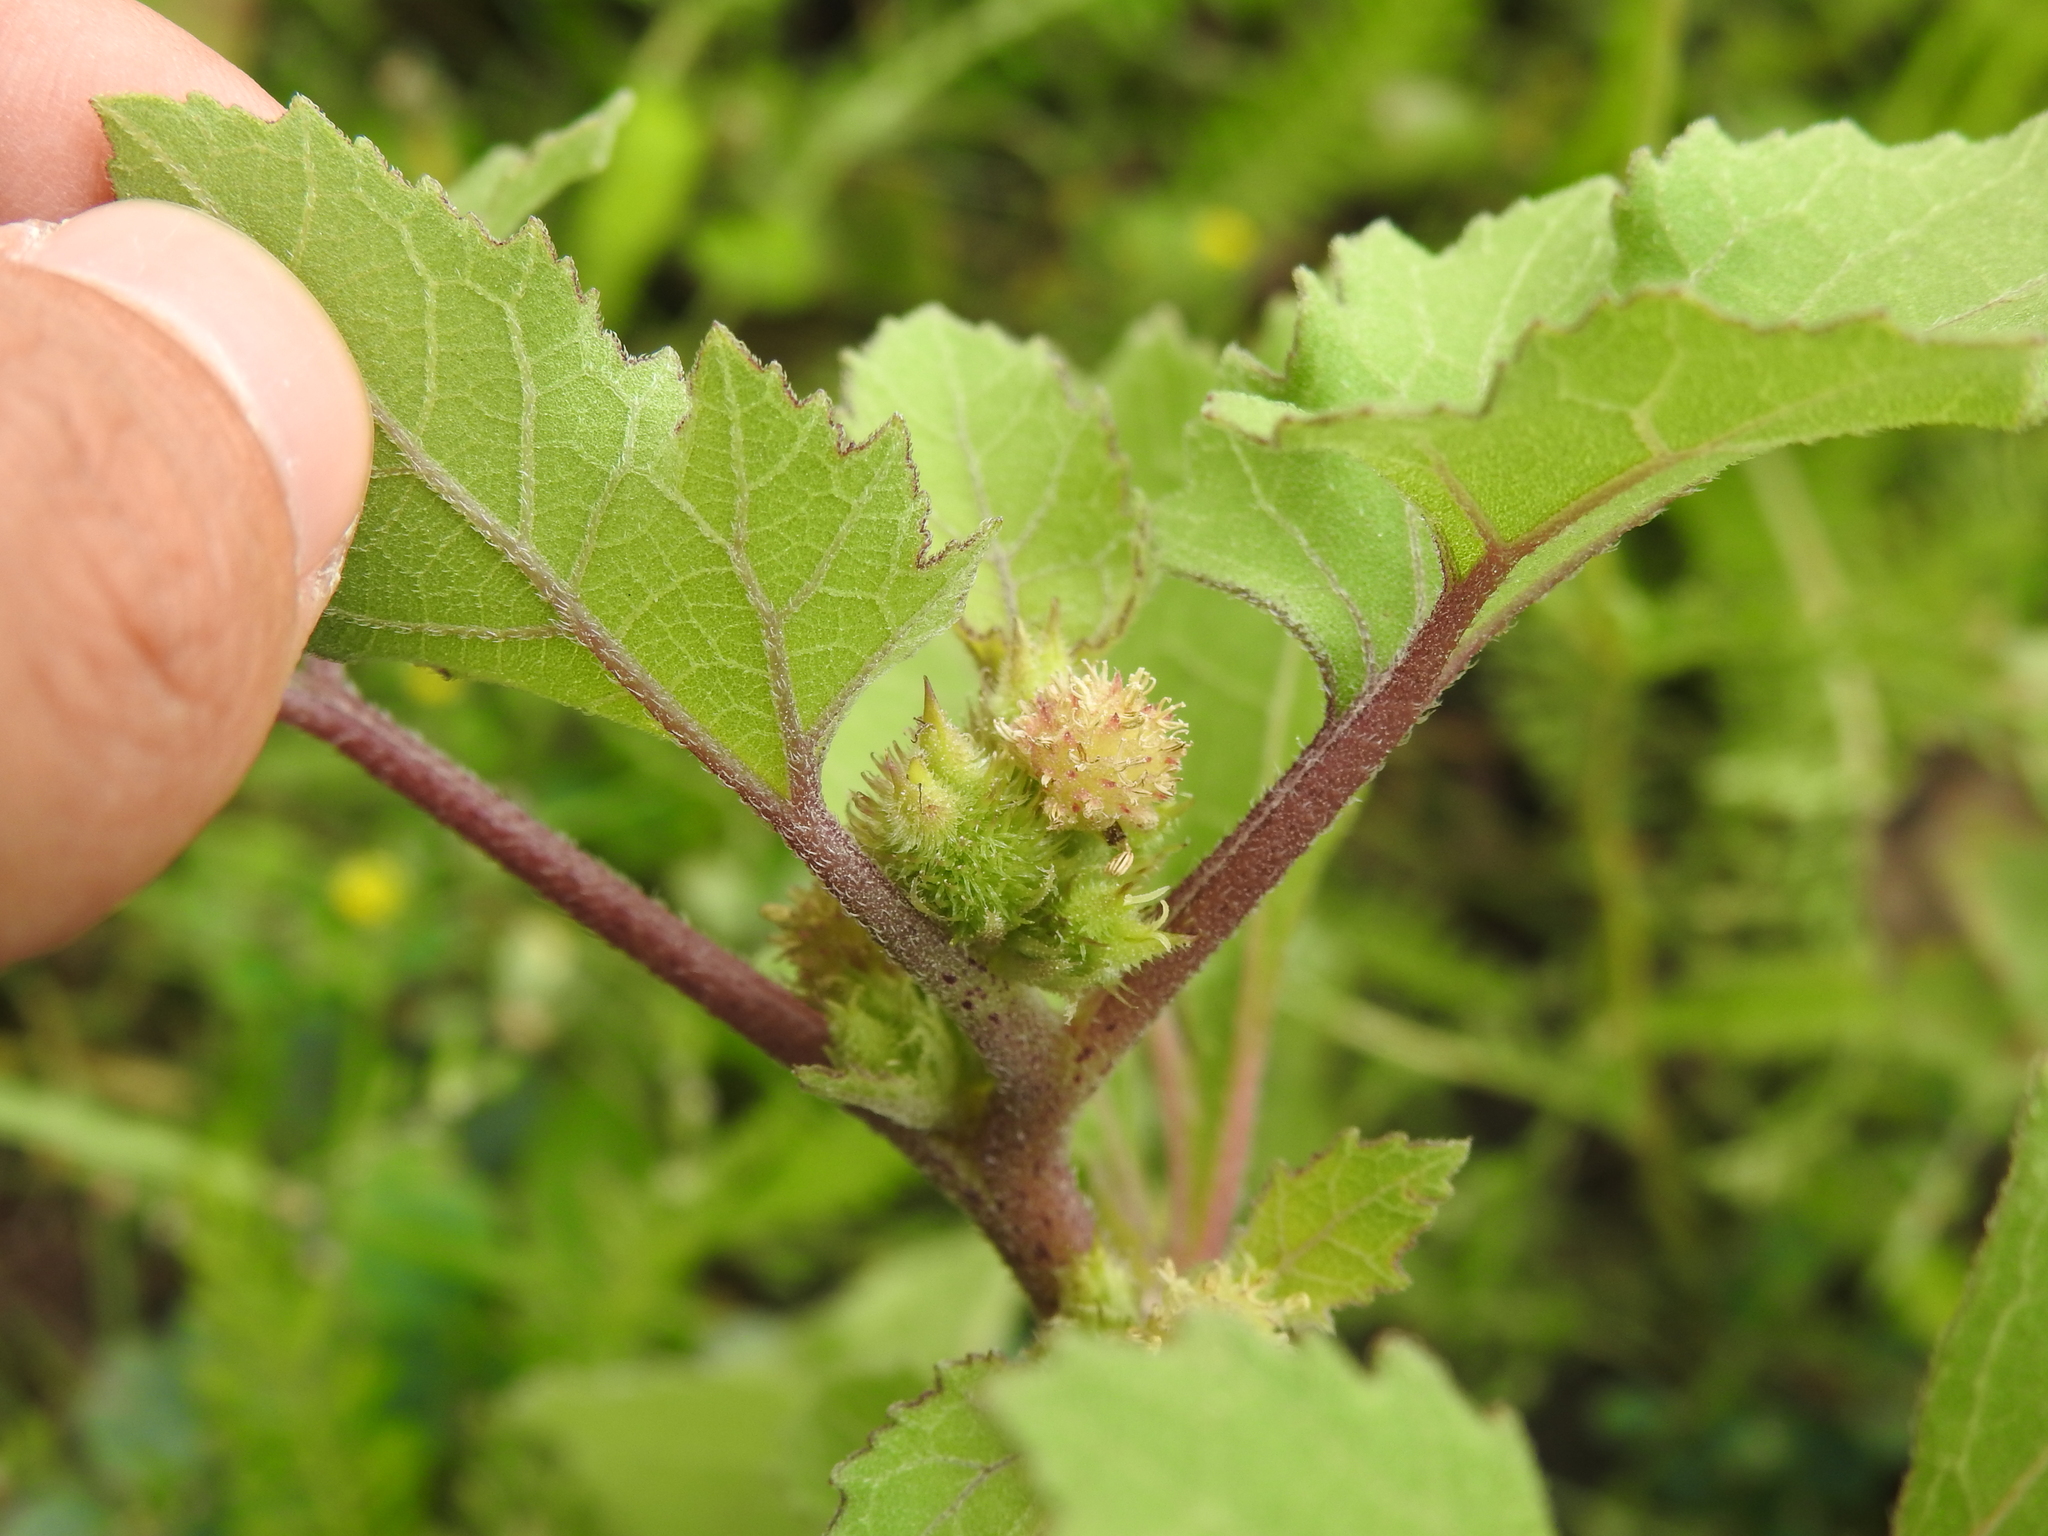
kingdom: Plantae
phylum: Tracheophyta
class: Magnoliopsida
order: Asterales
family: Asteraceae
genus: Xanthium
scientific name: Xanthium strumarium
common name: Rough cocklebur
